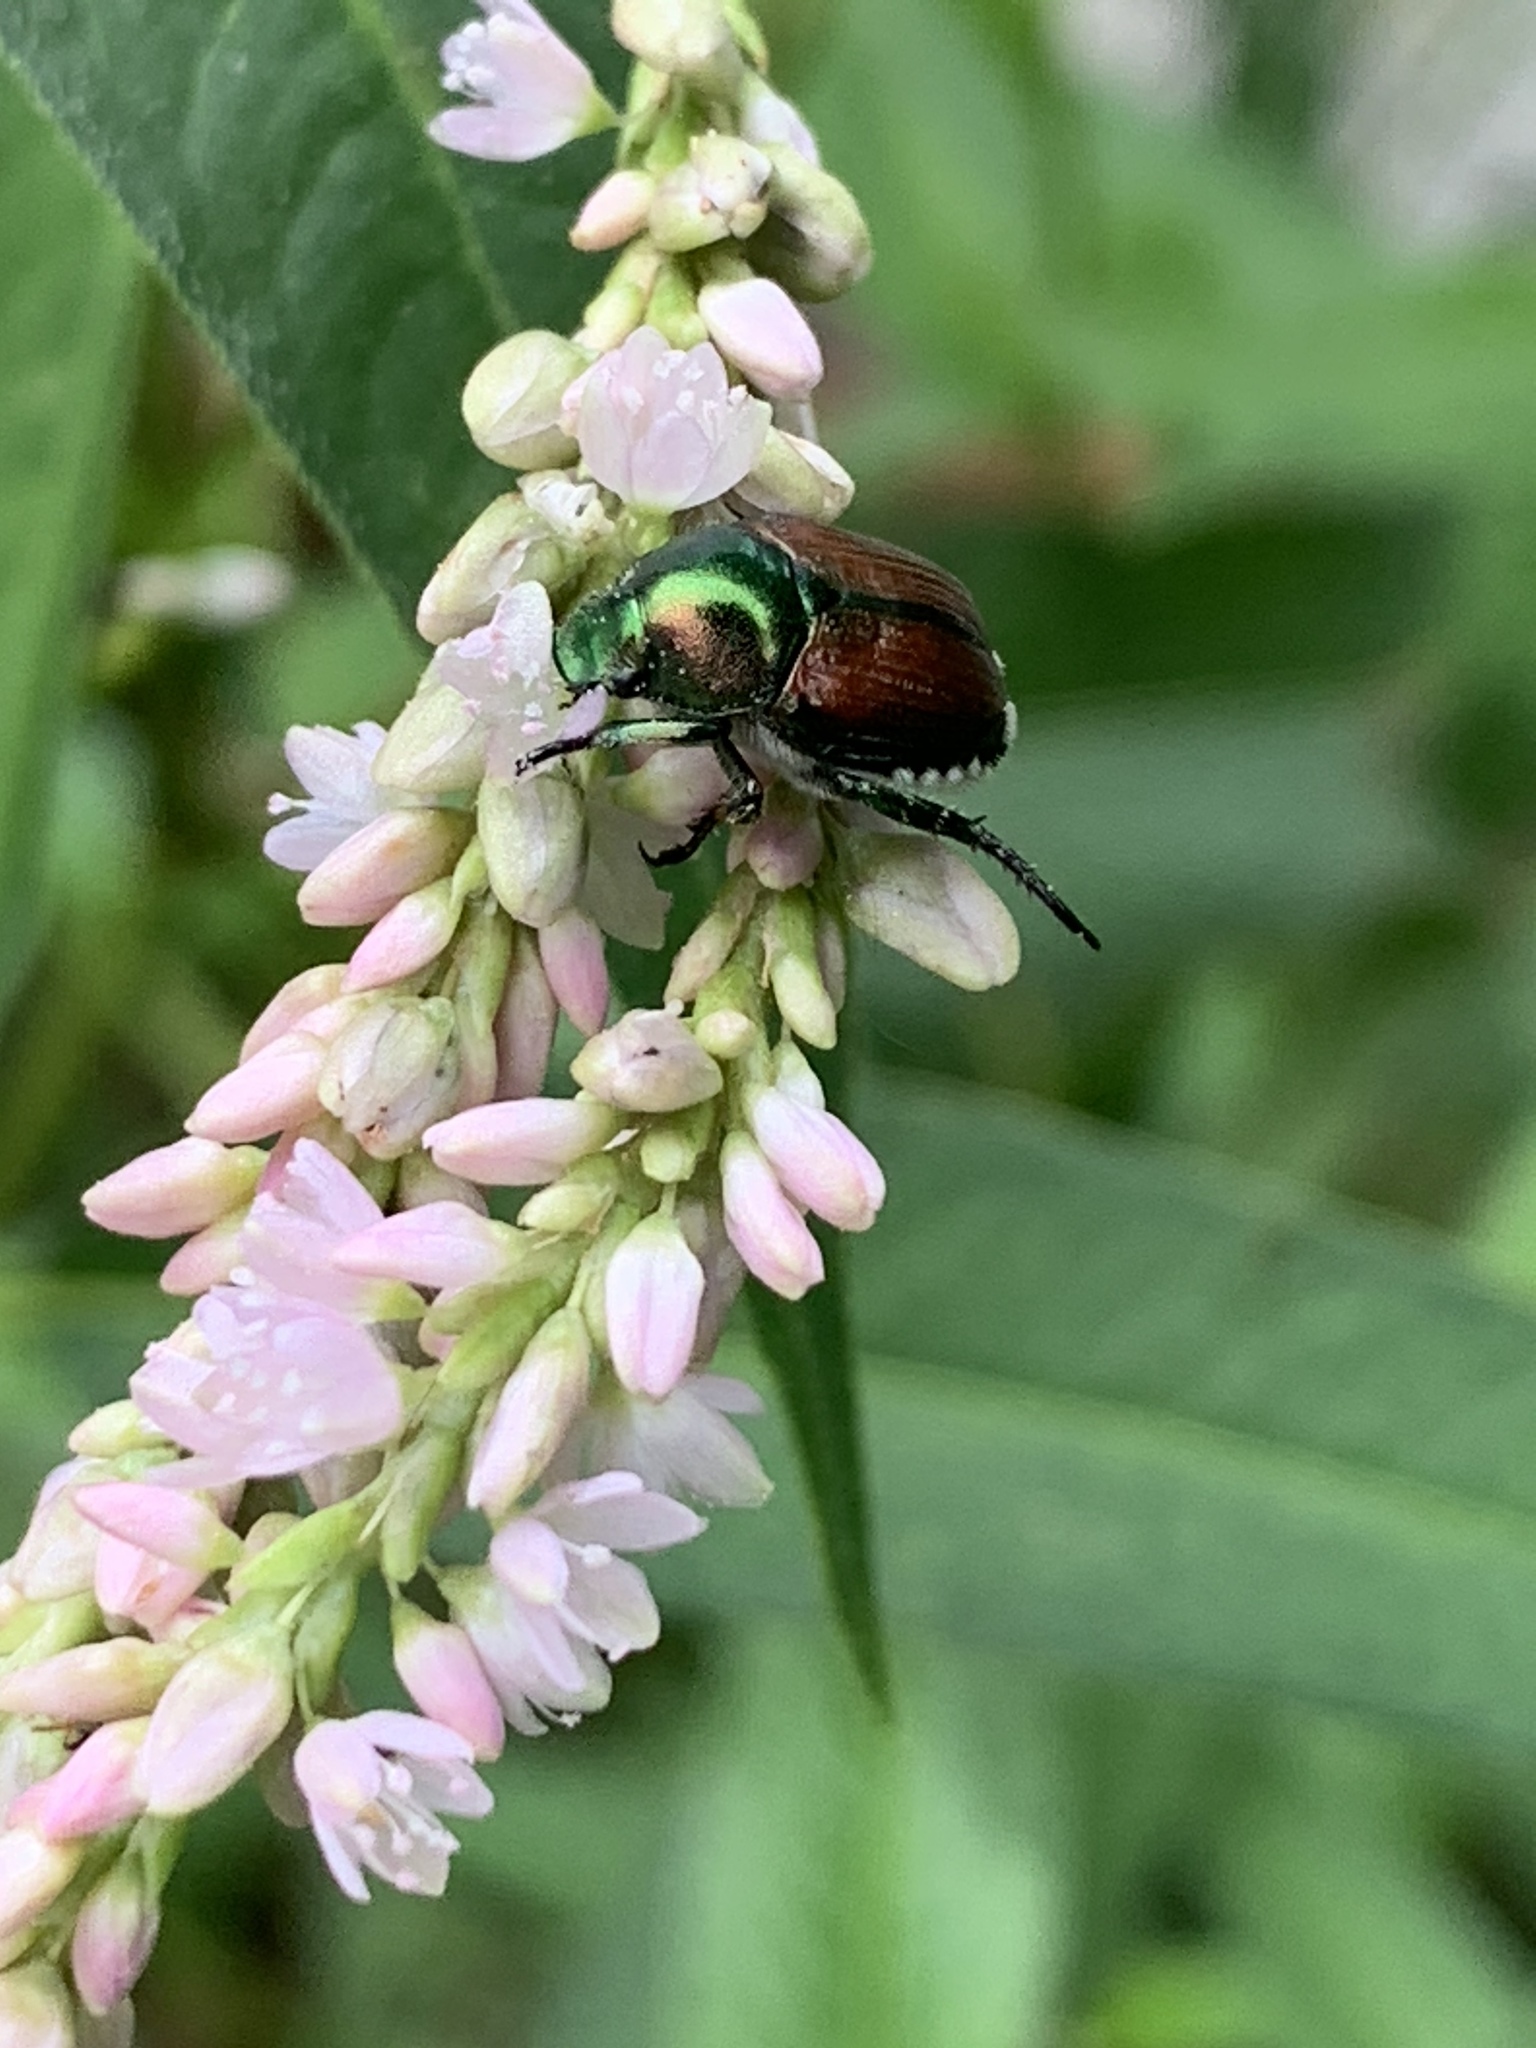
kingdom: Animalia
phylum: Arthropoda
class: Insecta
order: Coleoptera
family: Scarabaeidae
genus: Popillia
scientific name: Popillia japonica
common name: Japanese beetle
